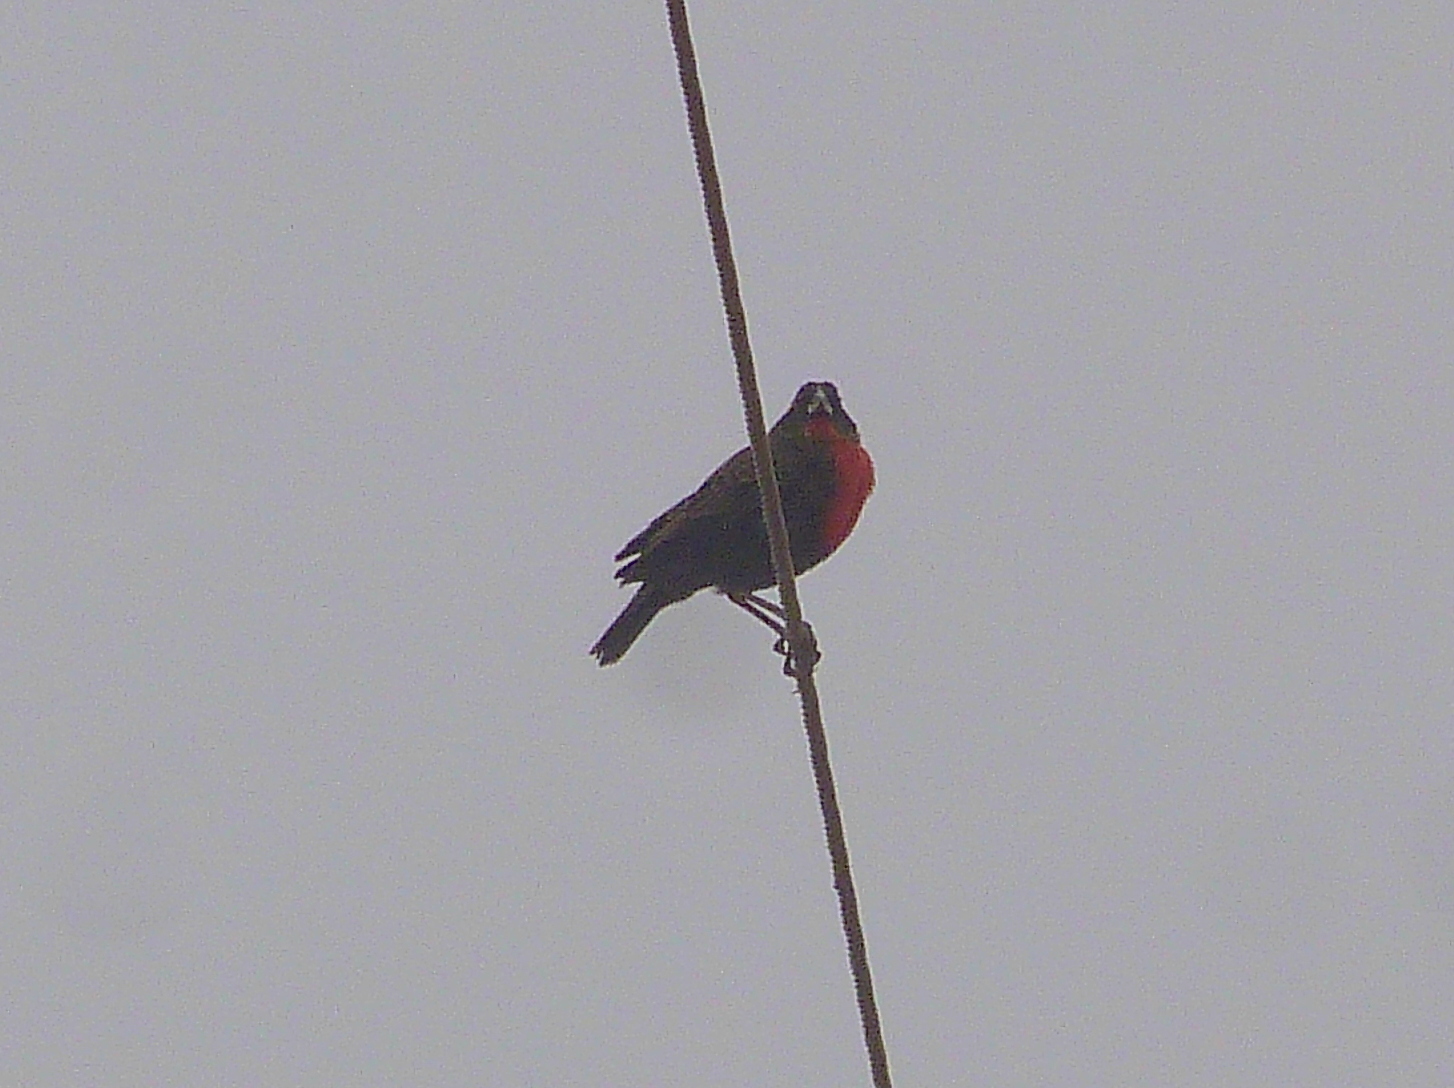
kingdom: Animalia
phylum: Chordata
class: Aves
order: Passeriformes
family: Icteridae
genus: Sturnella
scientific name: Sturnella superciliaris
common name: White-browed blackbird
